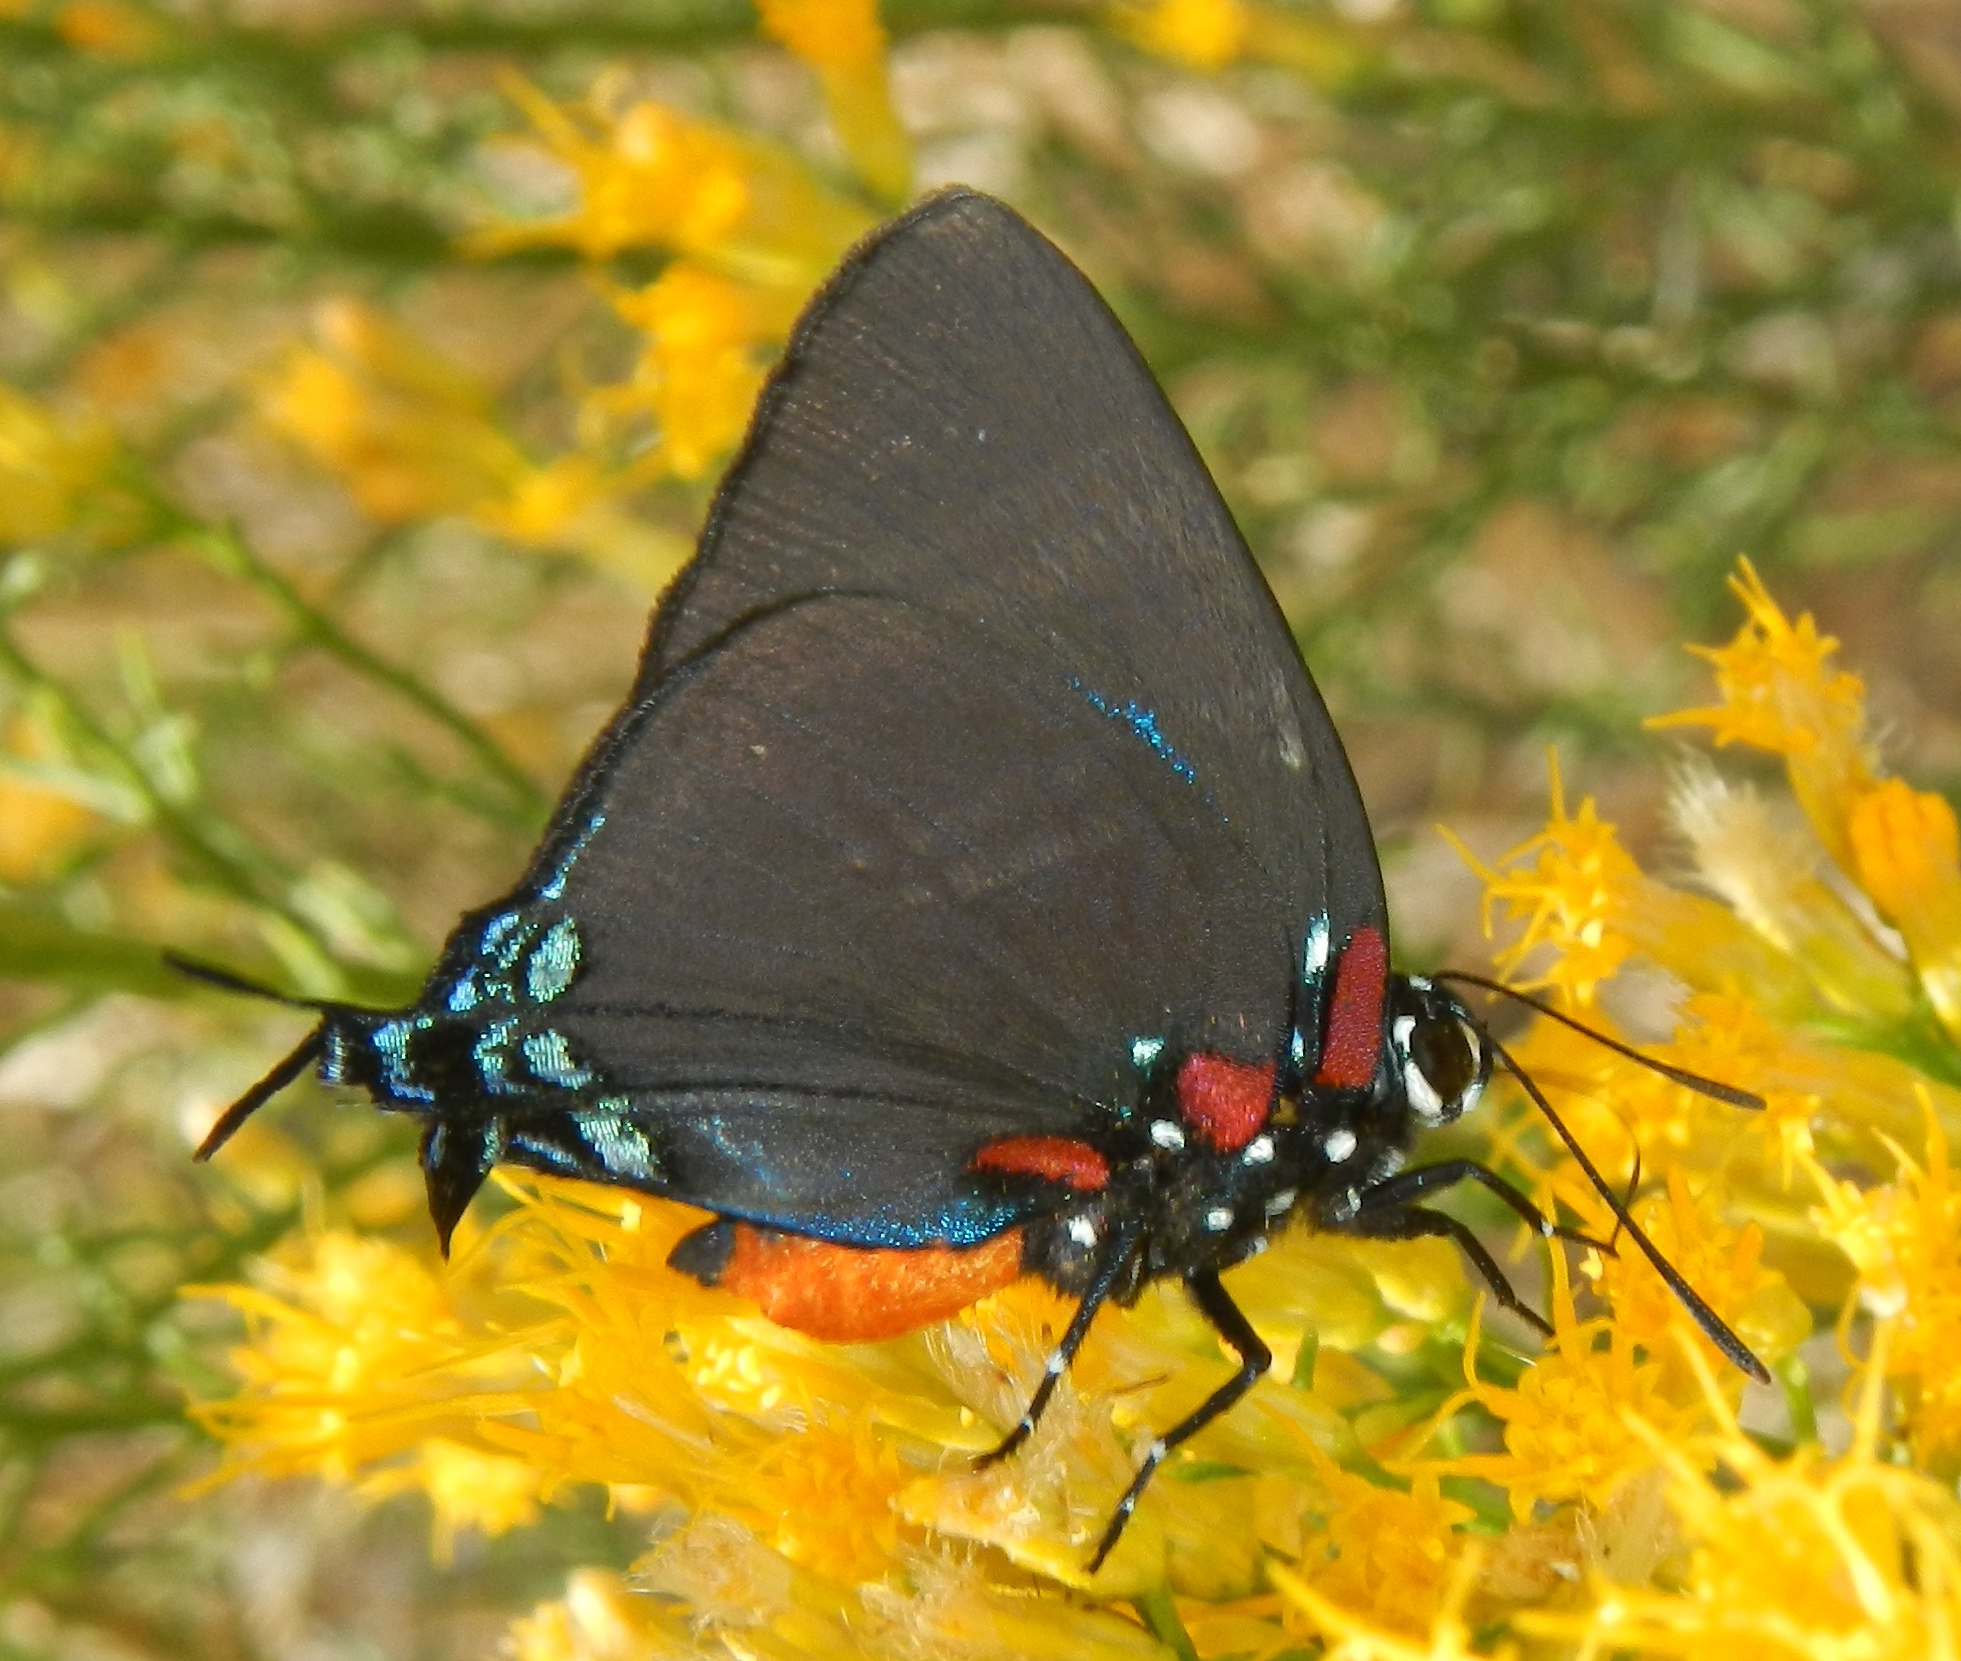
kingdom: Animalia
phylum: Arthropoda
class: Insecta
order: Lepidoptera
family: Lycaenidae
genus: Atlides
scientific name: Atlides halesus
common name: Great purple hairstreak
